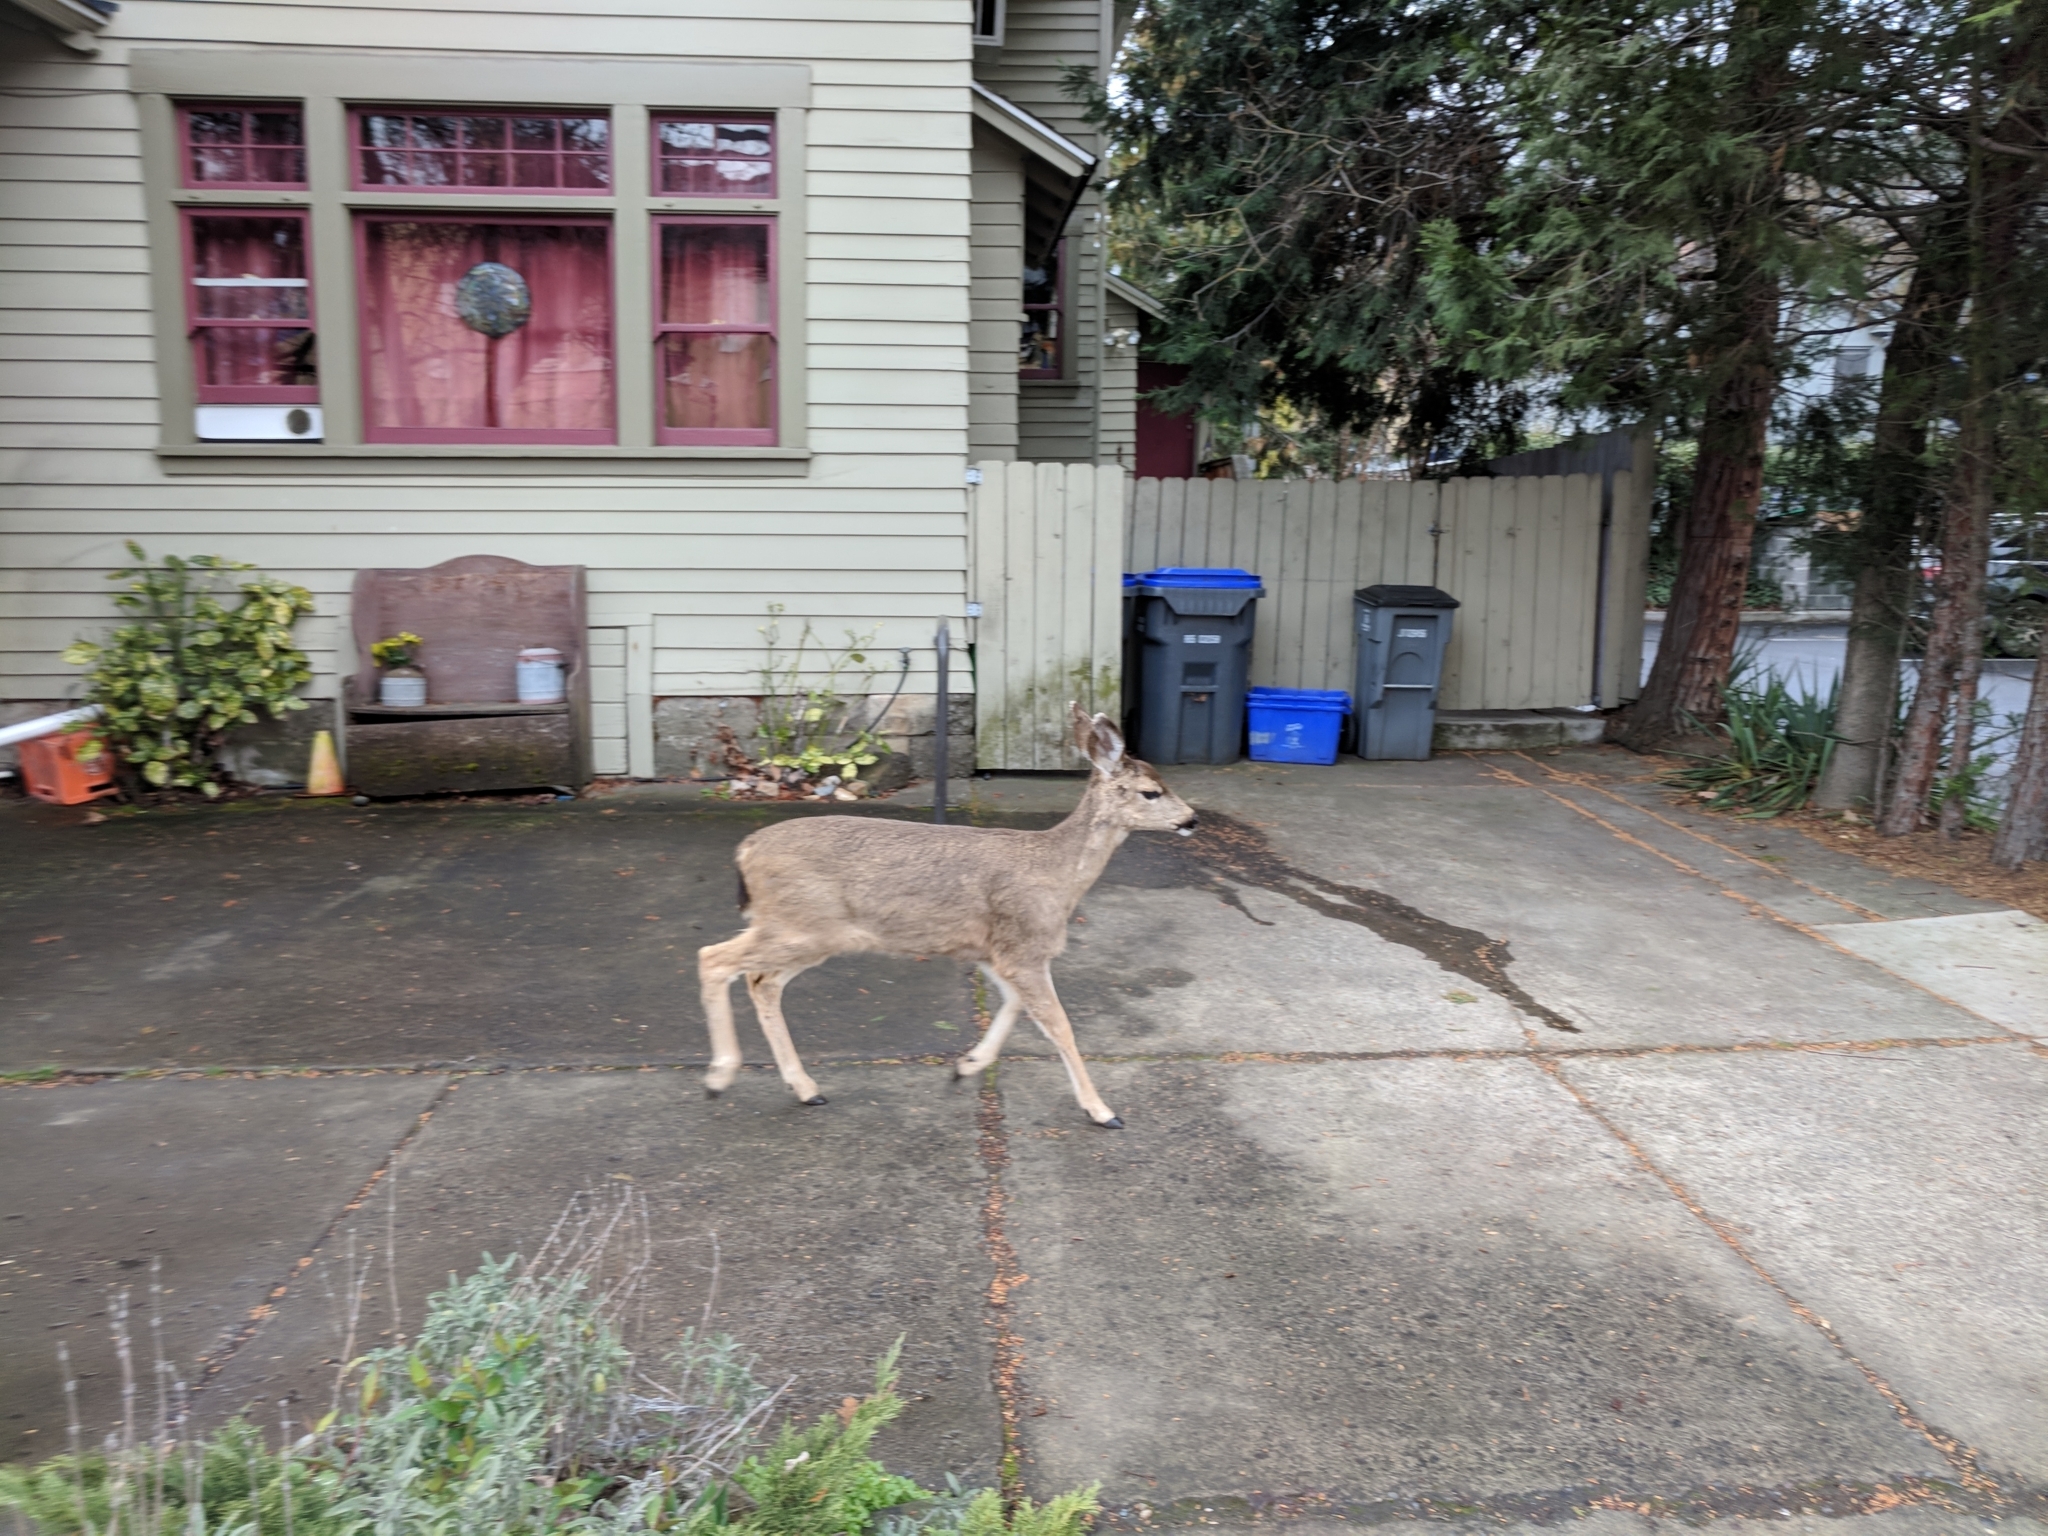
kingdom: Animalia
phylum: Chordata
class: Mammalia
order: Artiodactyla
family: Cervidae
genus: Odocoileus
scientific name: Odocoileus hemionus
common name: Mule deer
